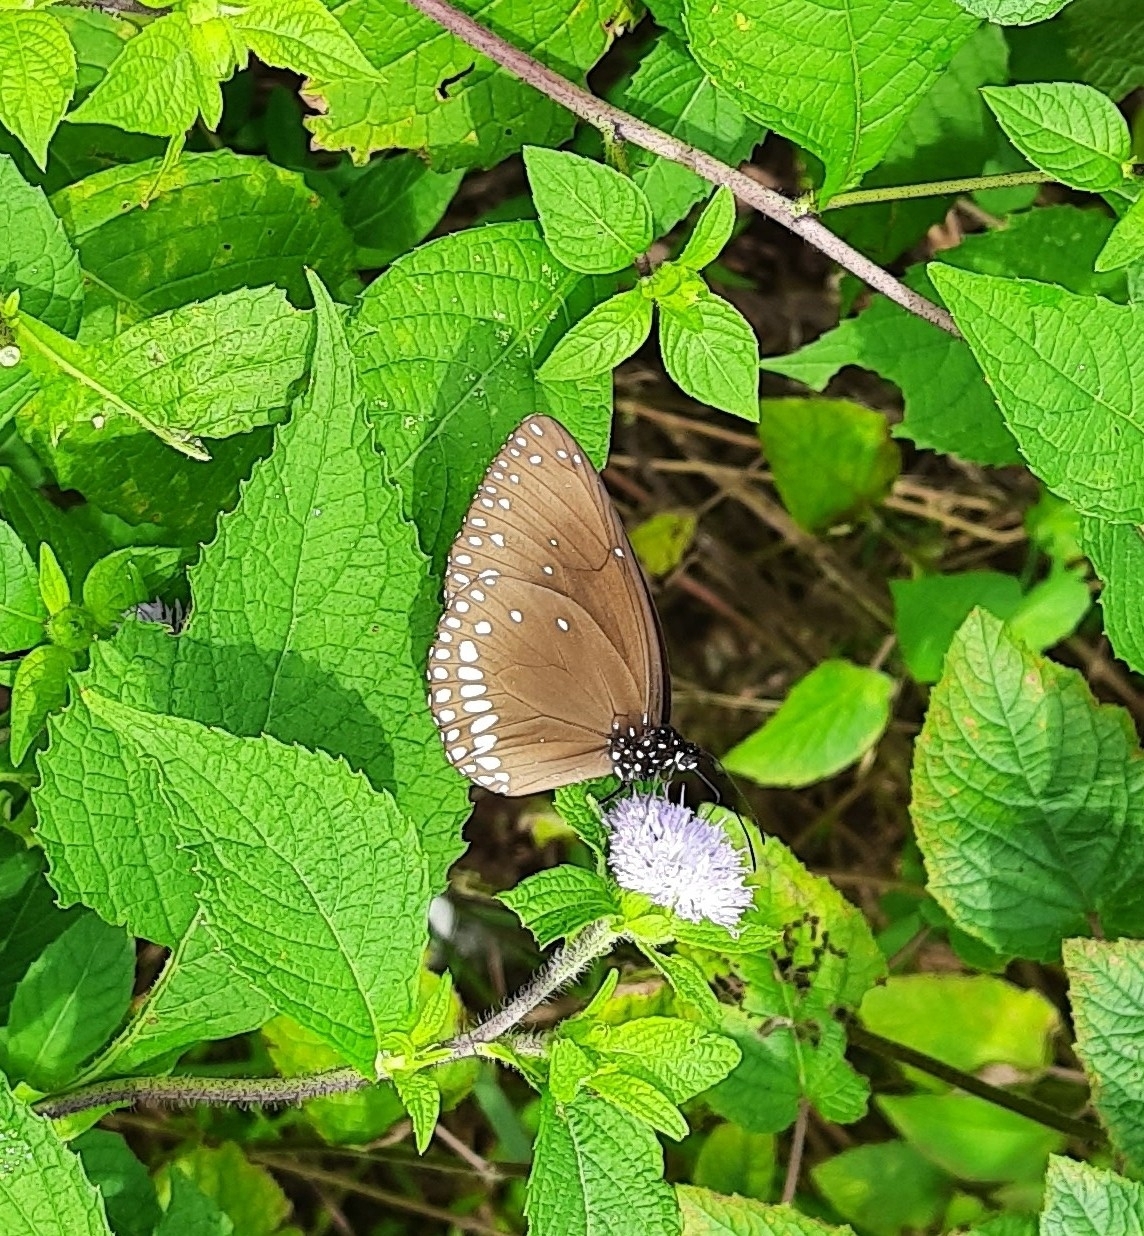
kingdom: Animalia
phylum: Arthropoda
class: Insecta
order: Lepidoptera
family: Nymphalidae
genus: Euploea
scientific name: Euploea klugii
